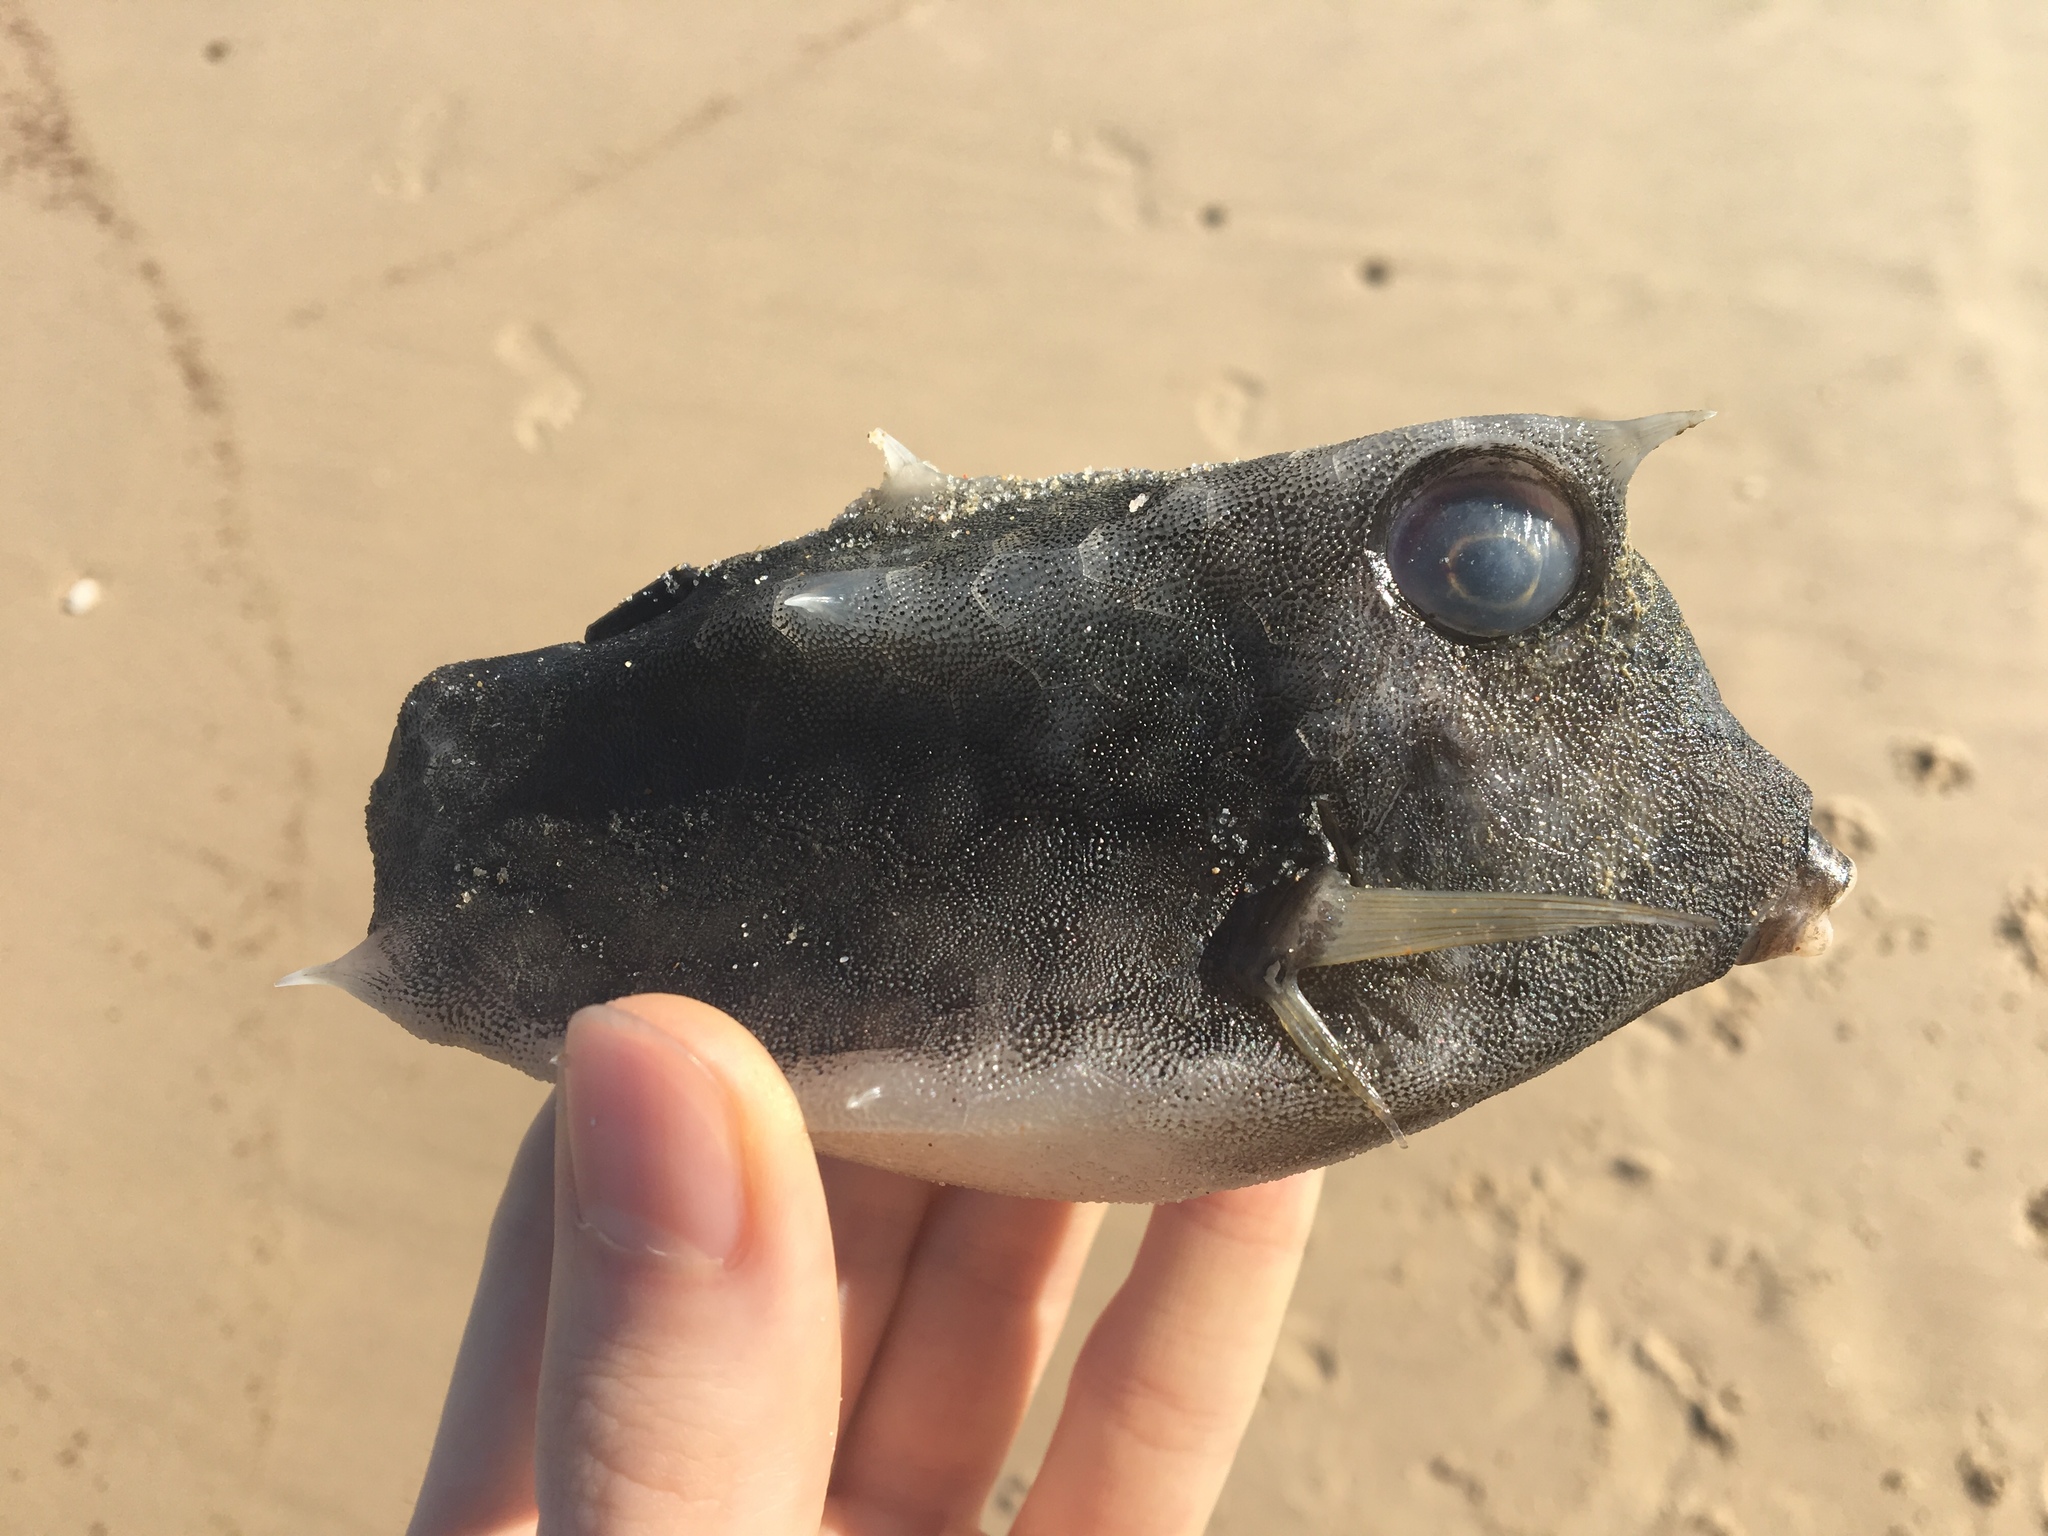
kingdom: Animalia
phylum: Chordata
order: Tetraodontiformes
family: Ostraciidae
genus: Lactoria
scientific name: Lactoria diaphana
